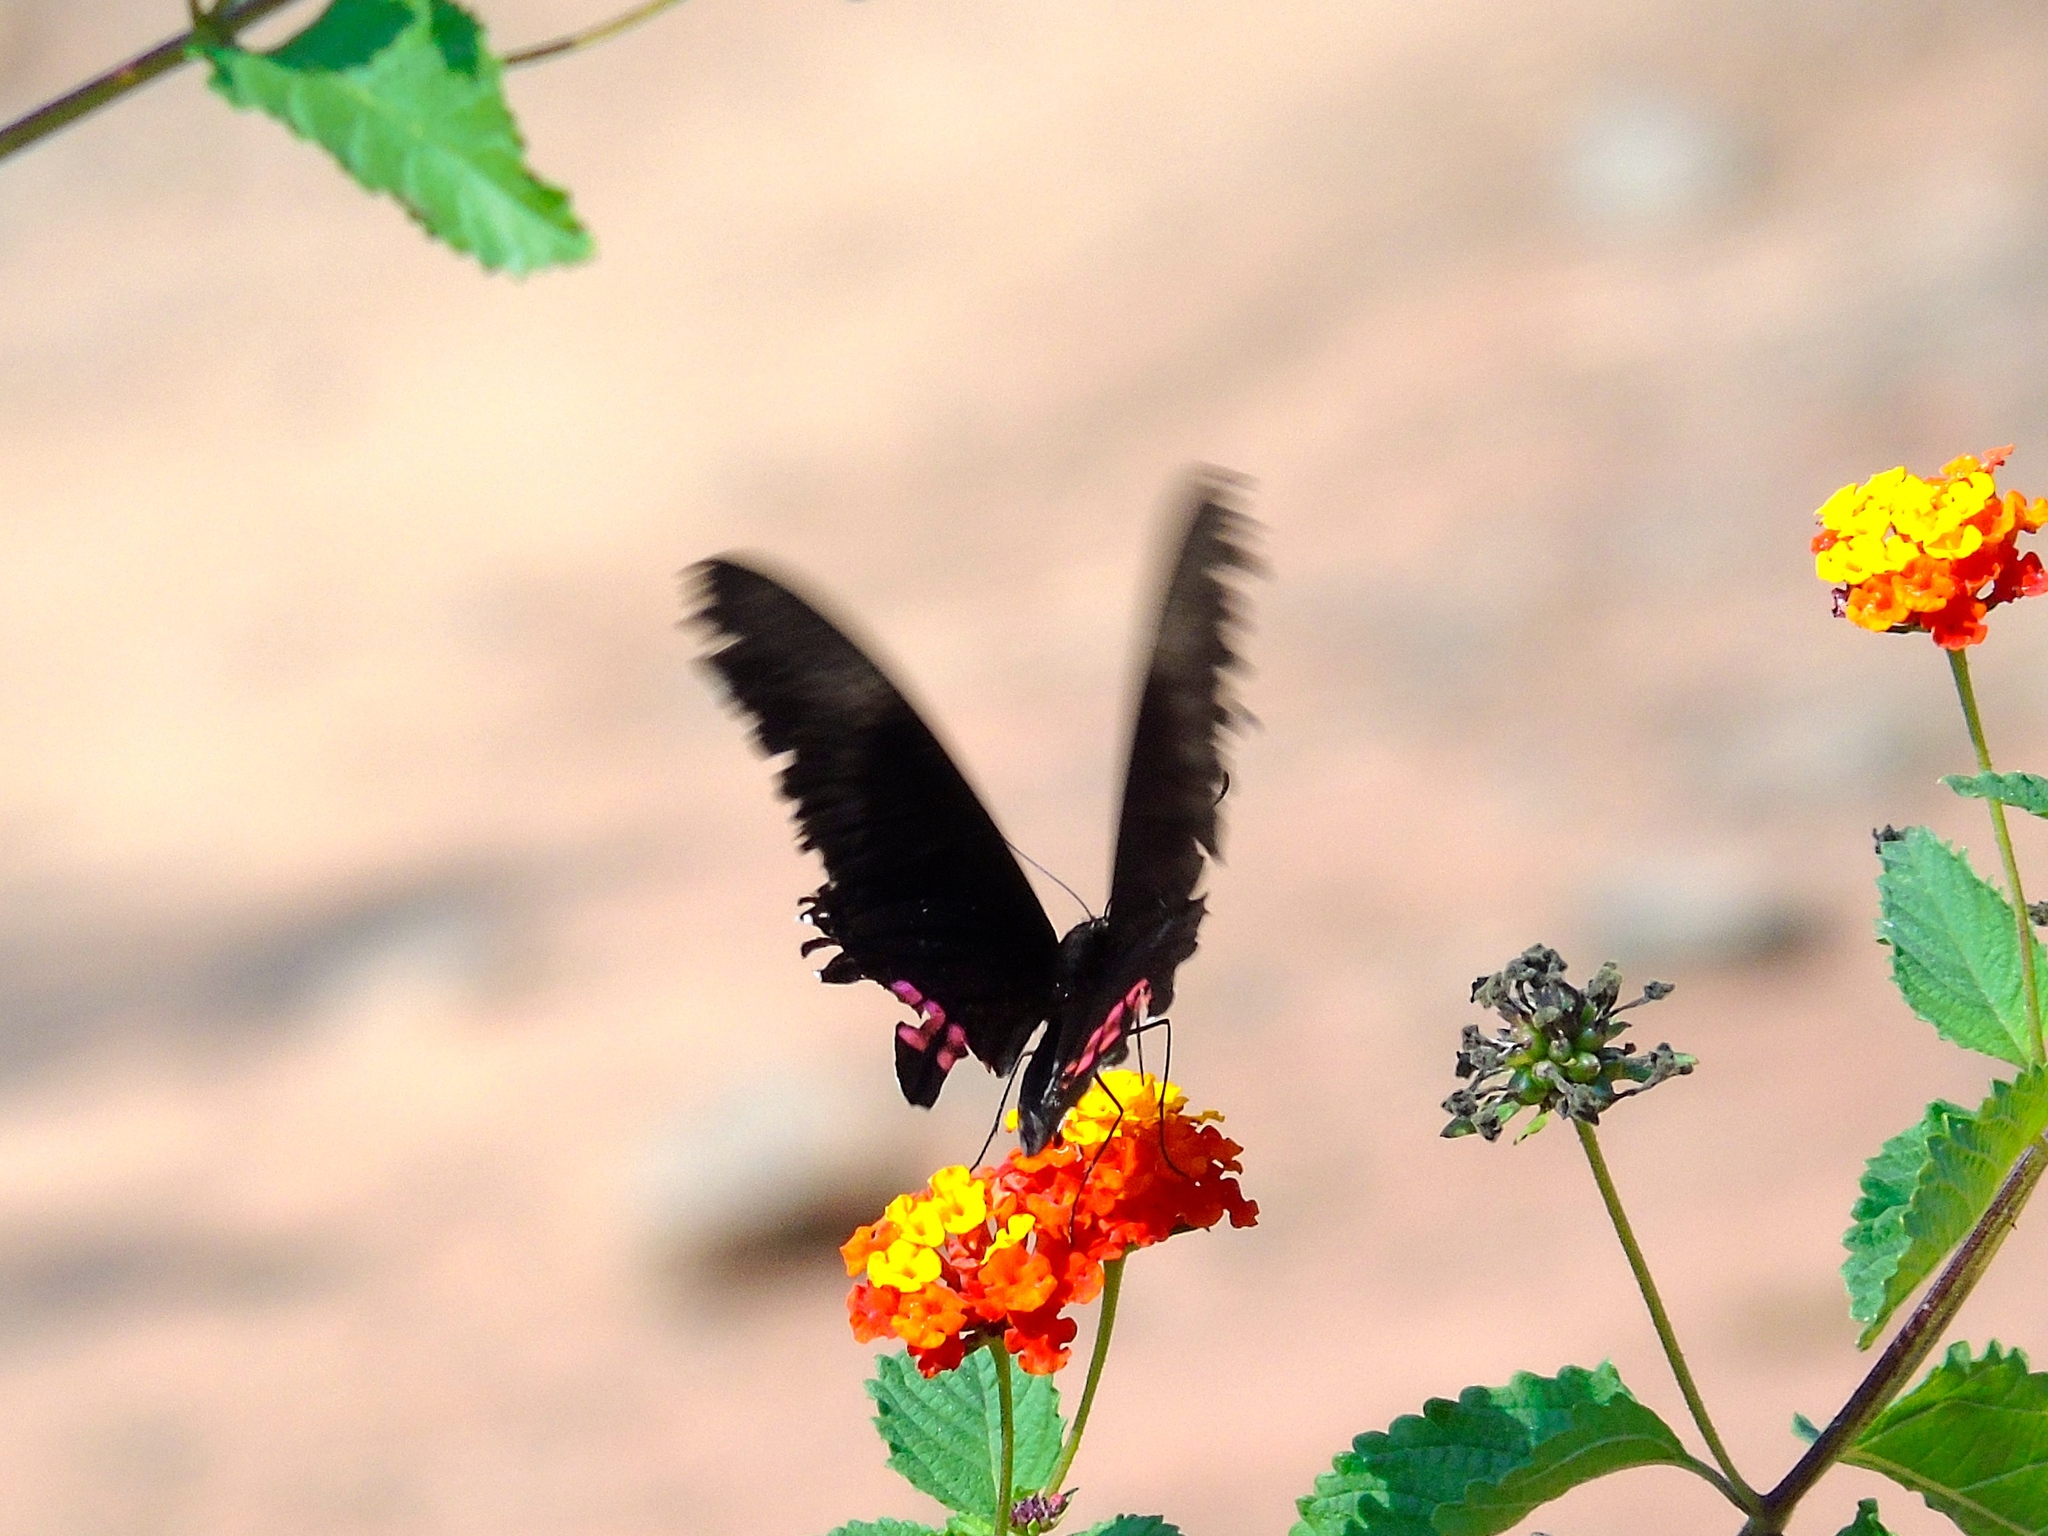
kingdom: Animalia
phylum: Arthropoda
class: Insecta
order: Lepidoptera
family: Papilionidae
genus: Papilio
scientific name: Papilio anchisiades
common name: Idaes swallowtail
